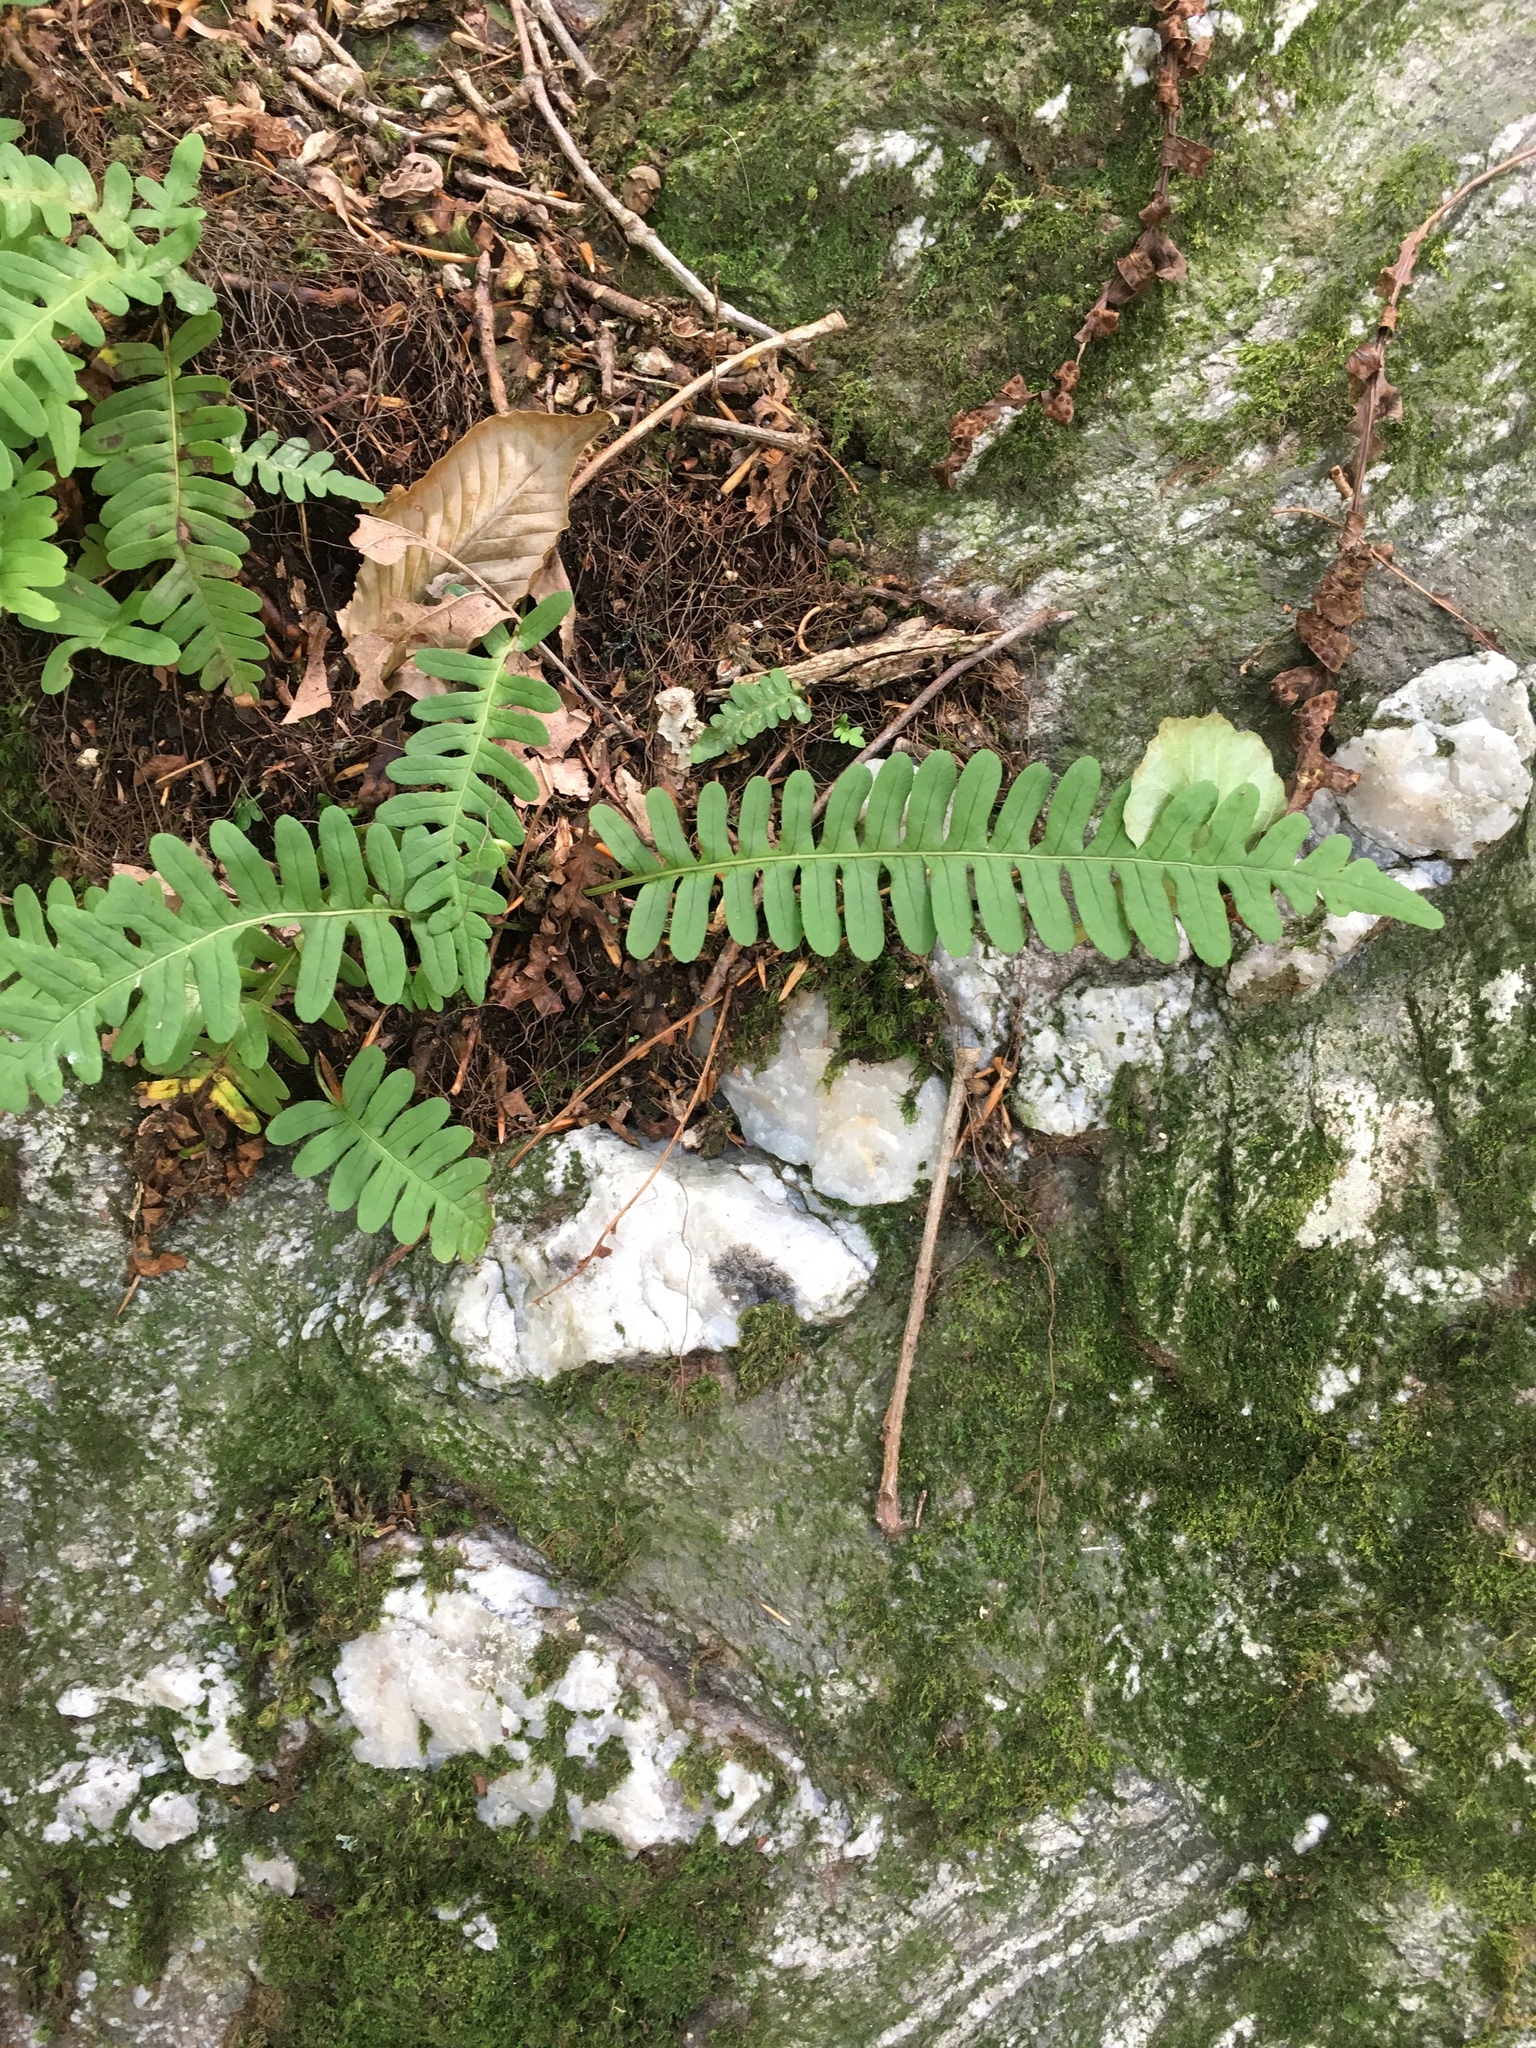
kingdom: Plantae
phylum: Tracheophyta
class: Polypodiopsida
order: Polypodiales
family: Polypodiaceae
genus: Polypodium
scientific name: Polypodium virginianum
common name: American wall fern
